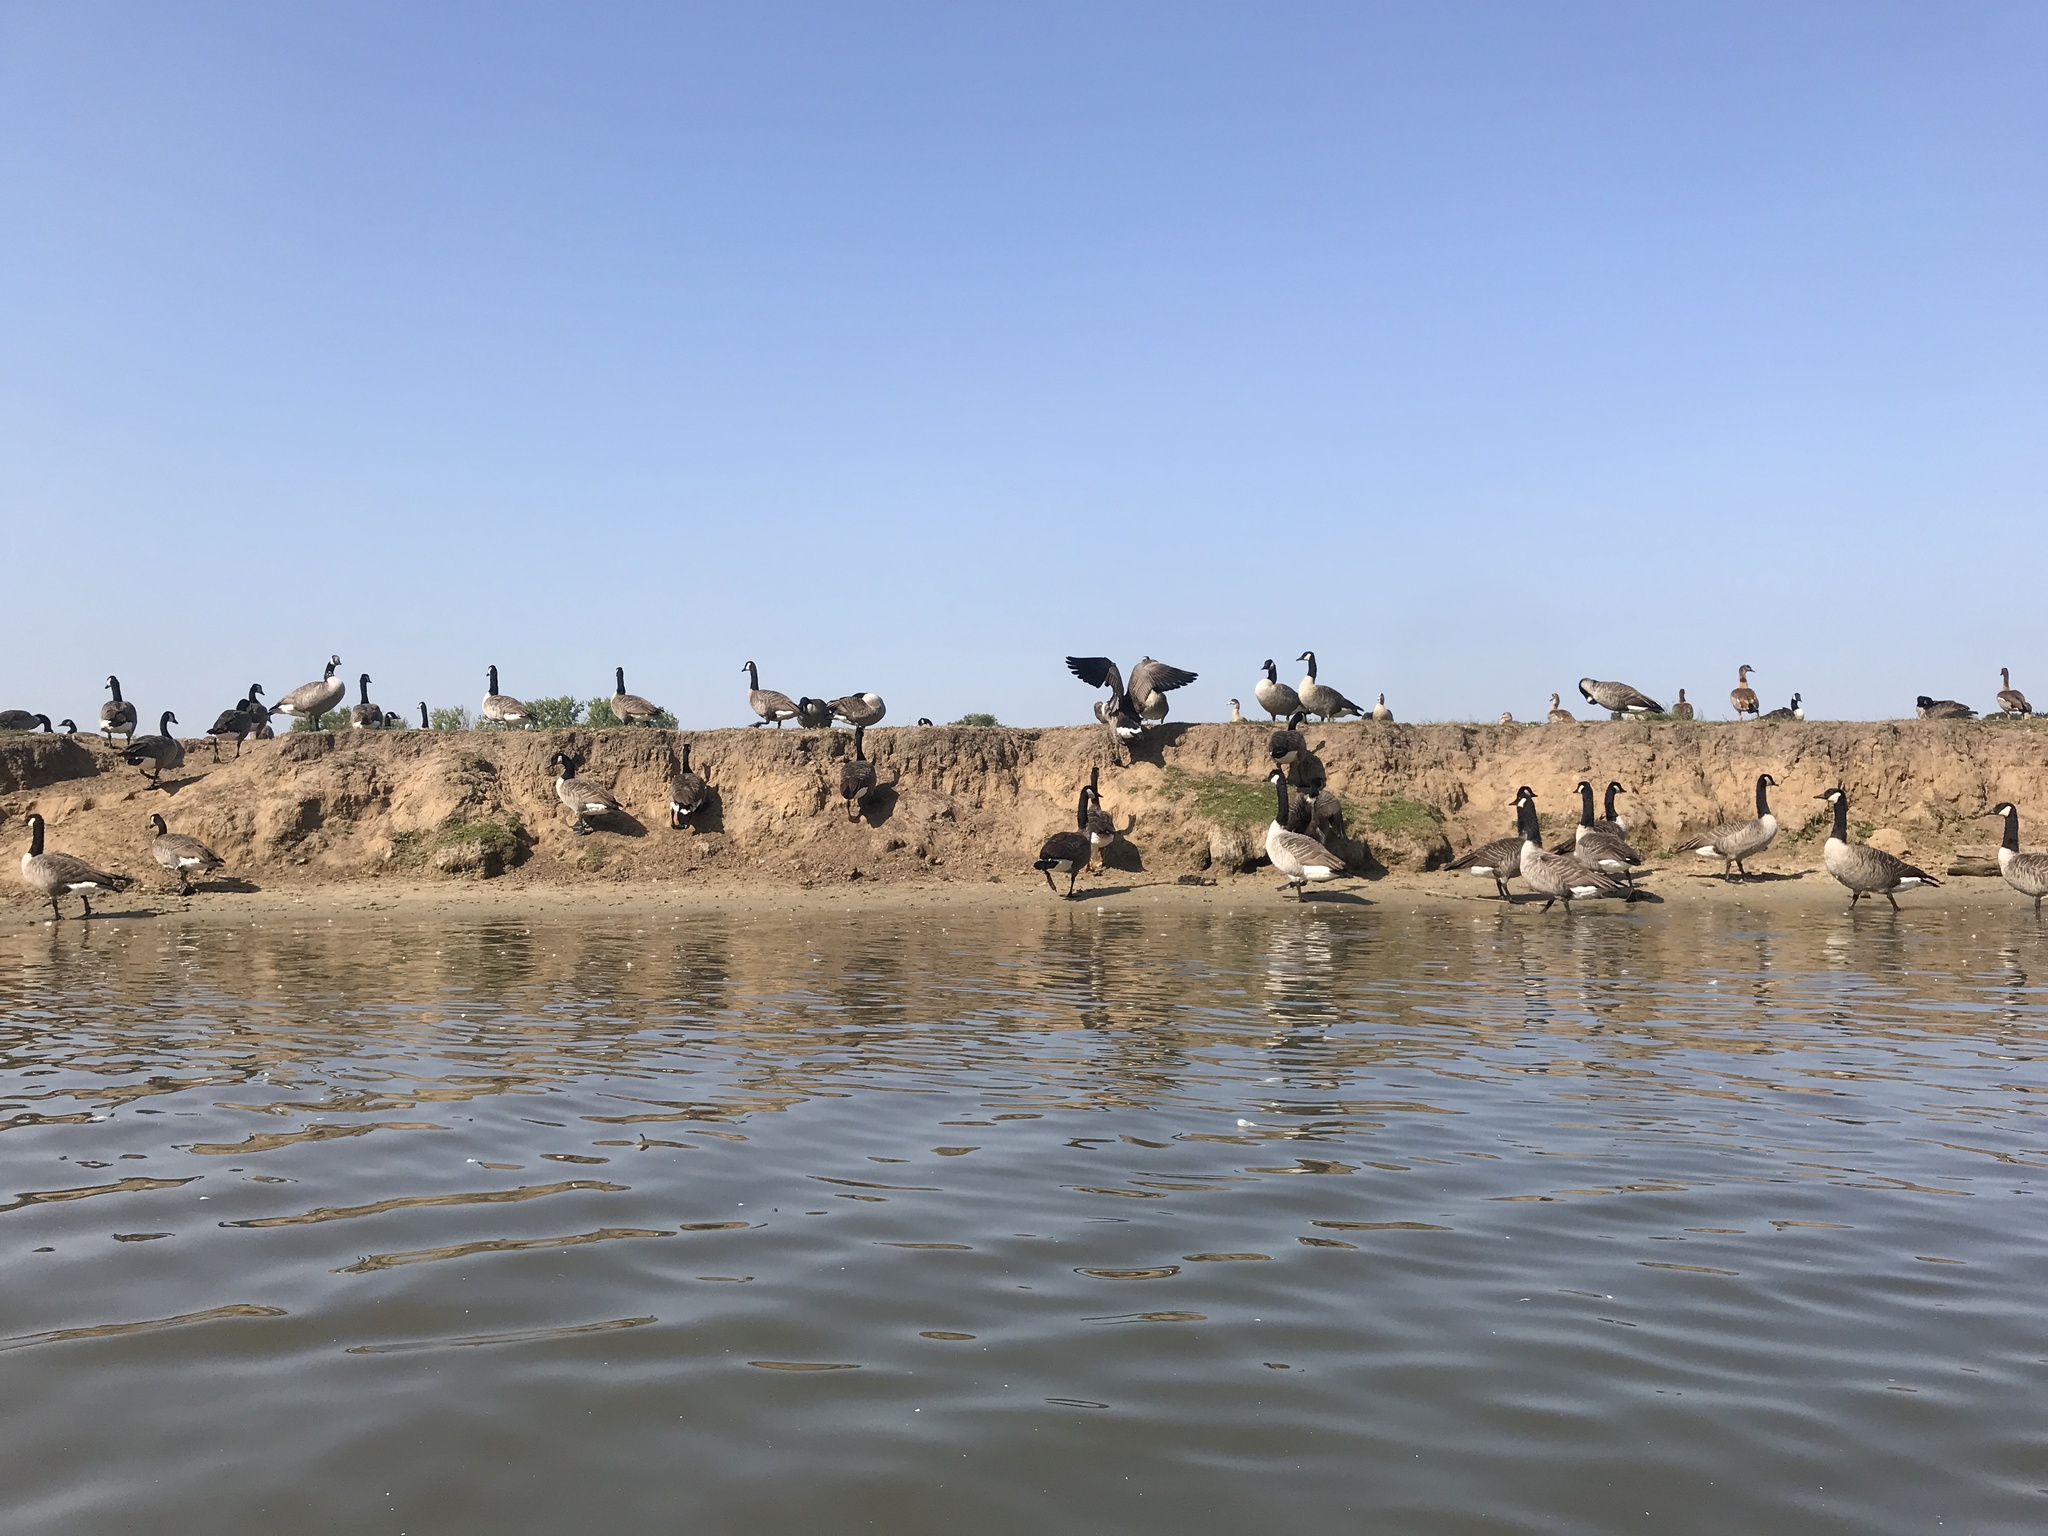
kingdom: Animalia
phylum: Chordata
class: Aves
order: Anseriformes
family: Anatidae
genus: Branta
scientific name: Branta canadensis
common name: Canada goose
